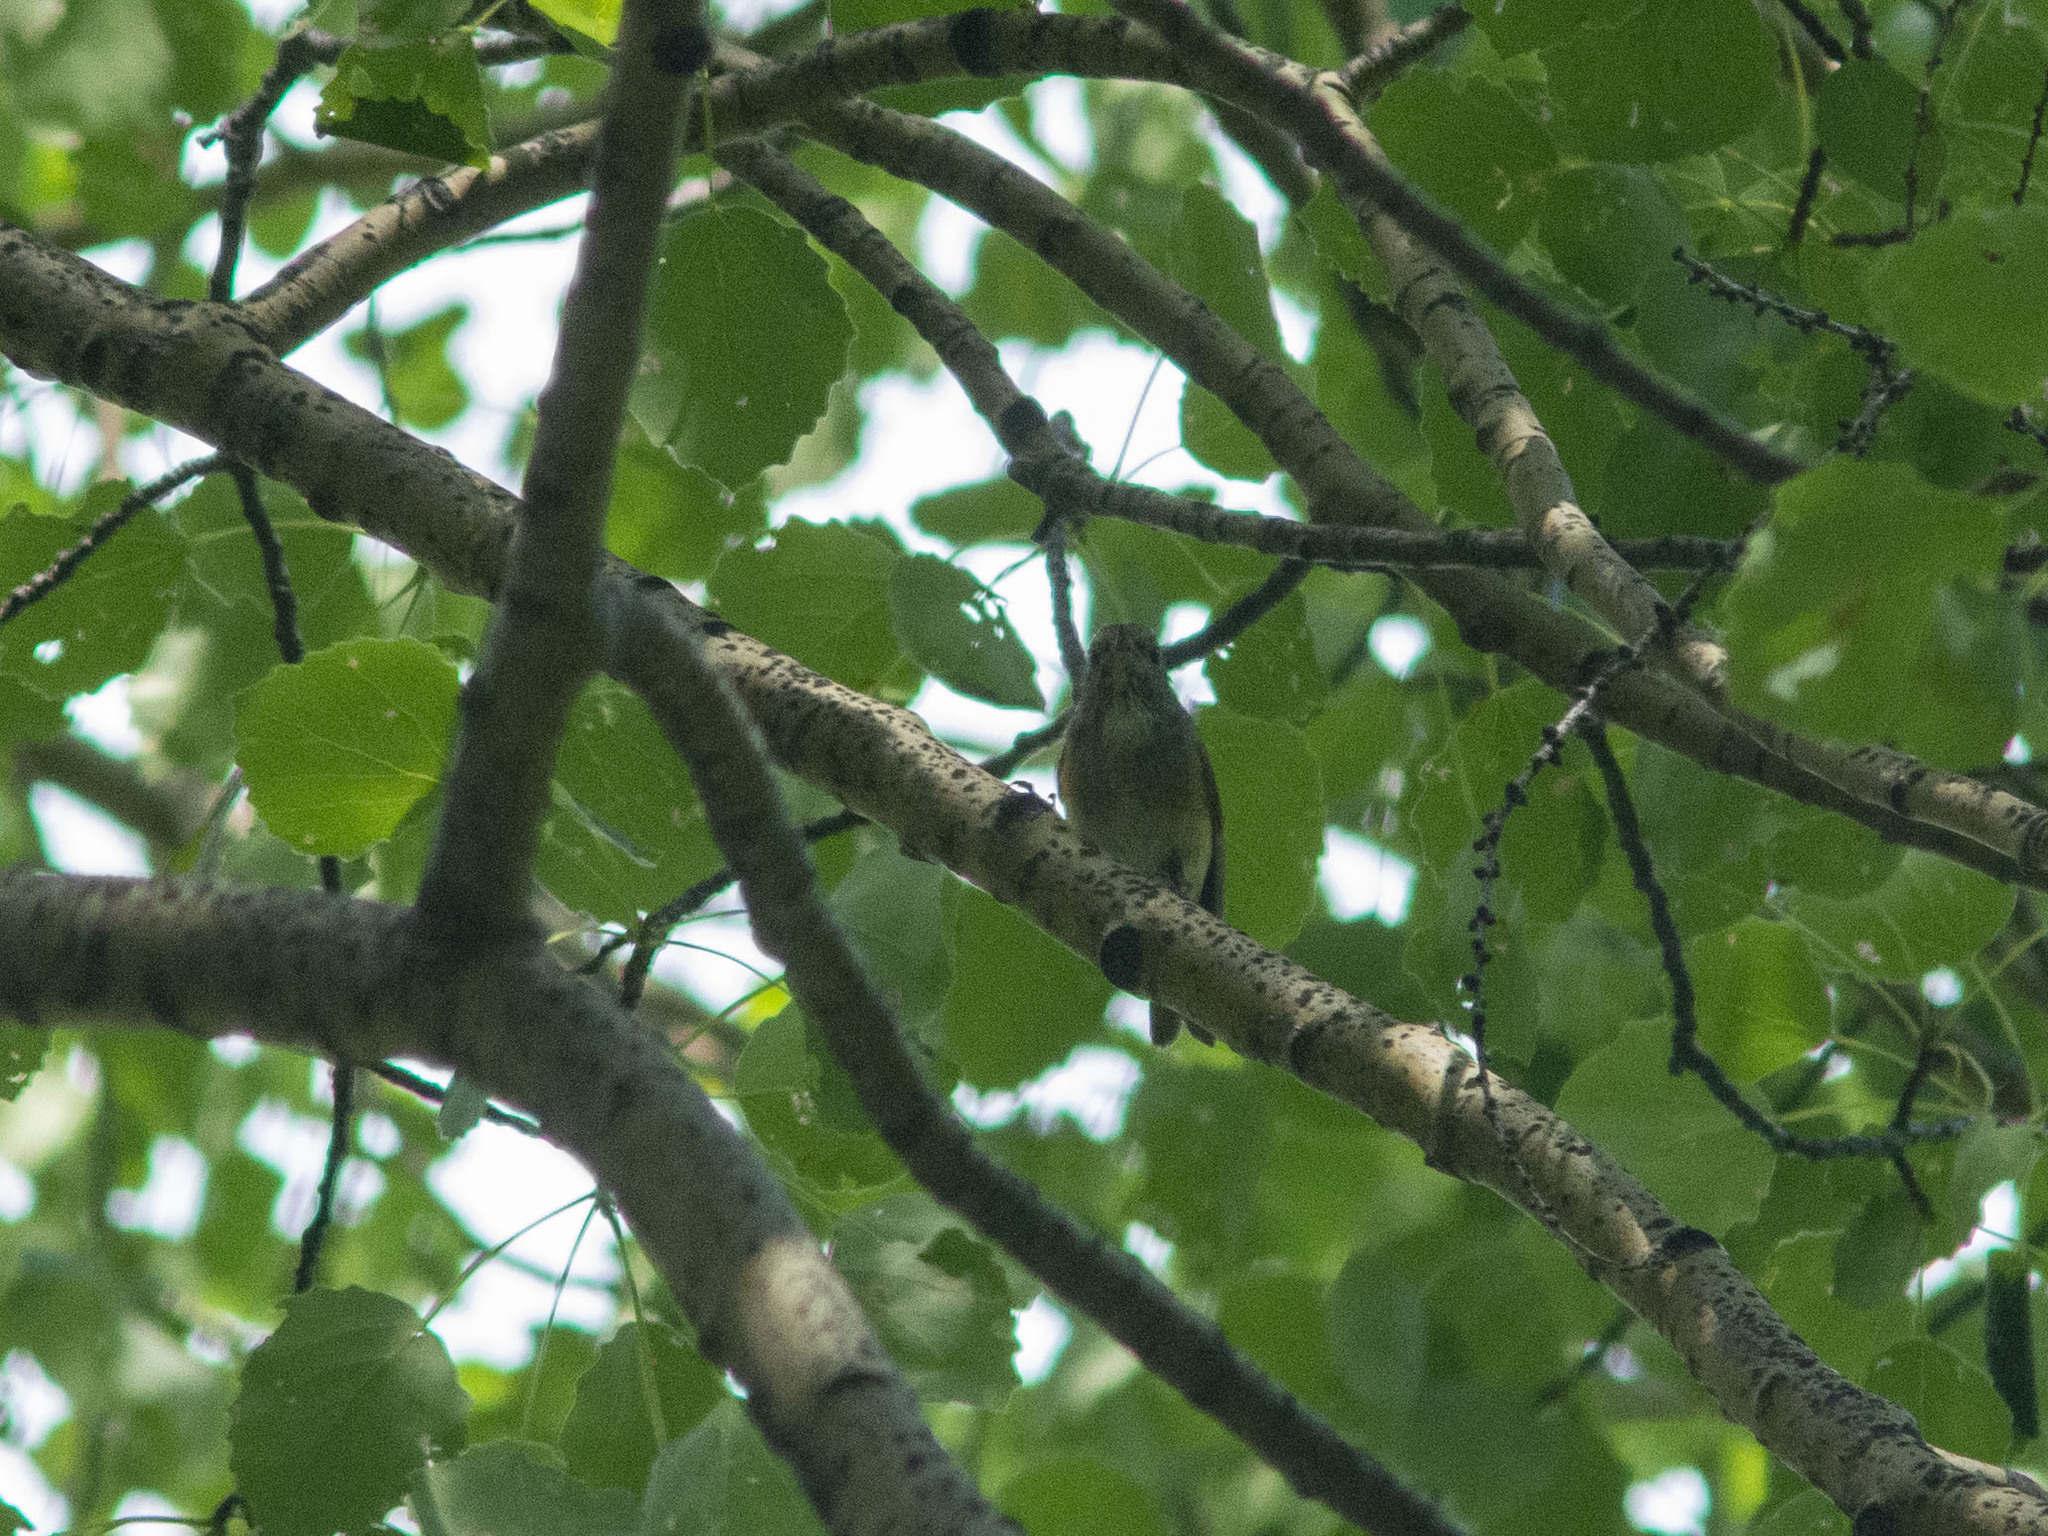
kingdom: Animalia
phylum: Chordata
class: Aves
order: Passeriformes
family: Muscicapidae
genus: Tarsiger
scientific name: Tarsiger cyanurus
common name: Red-flanked bluetail
